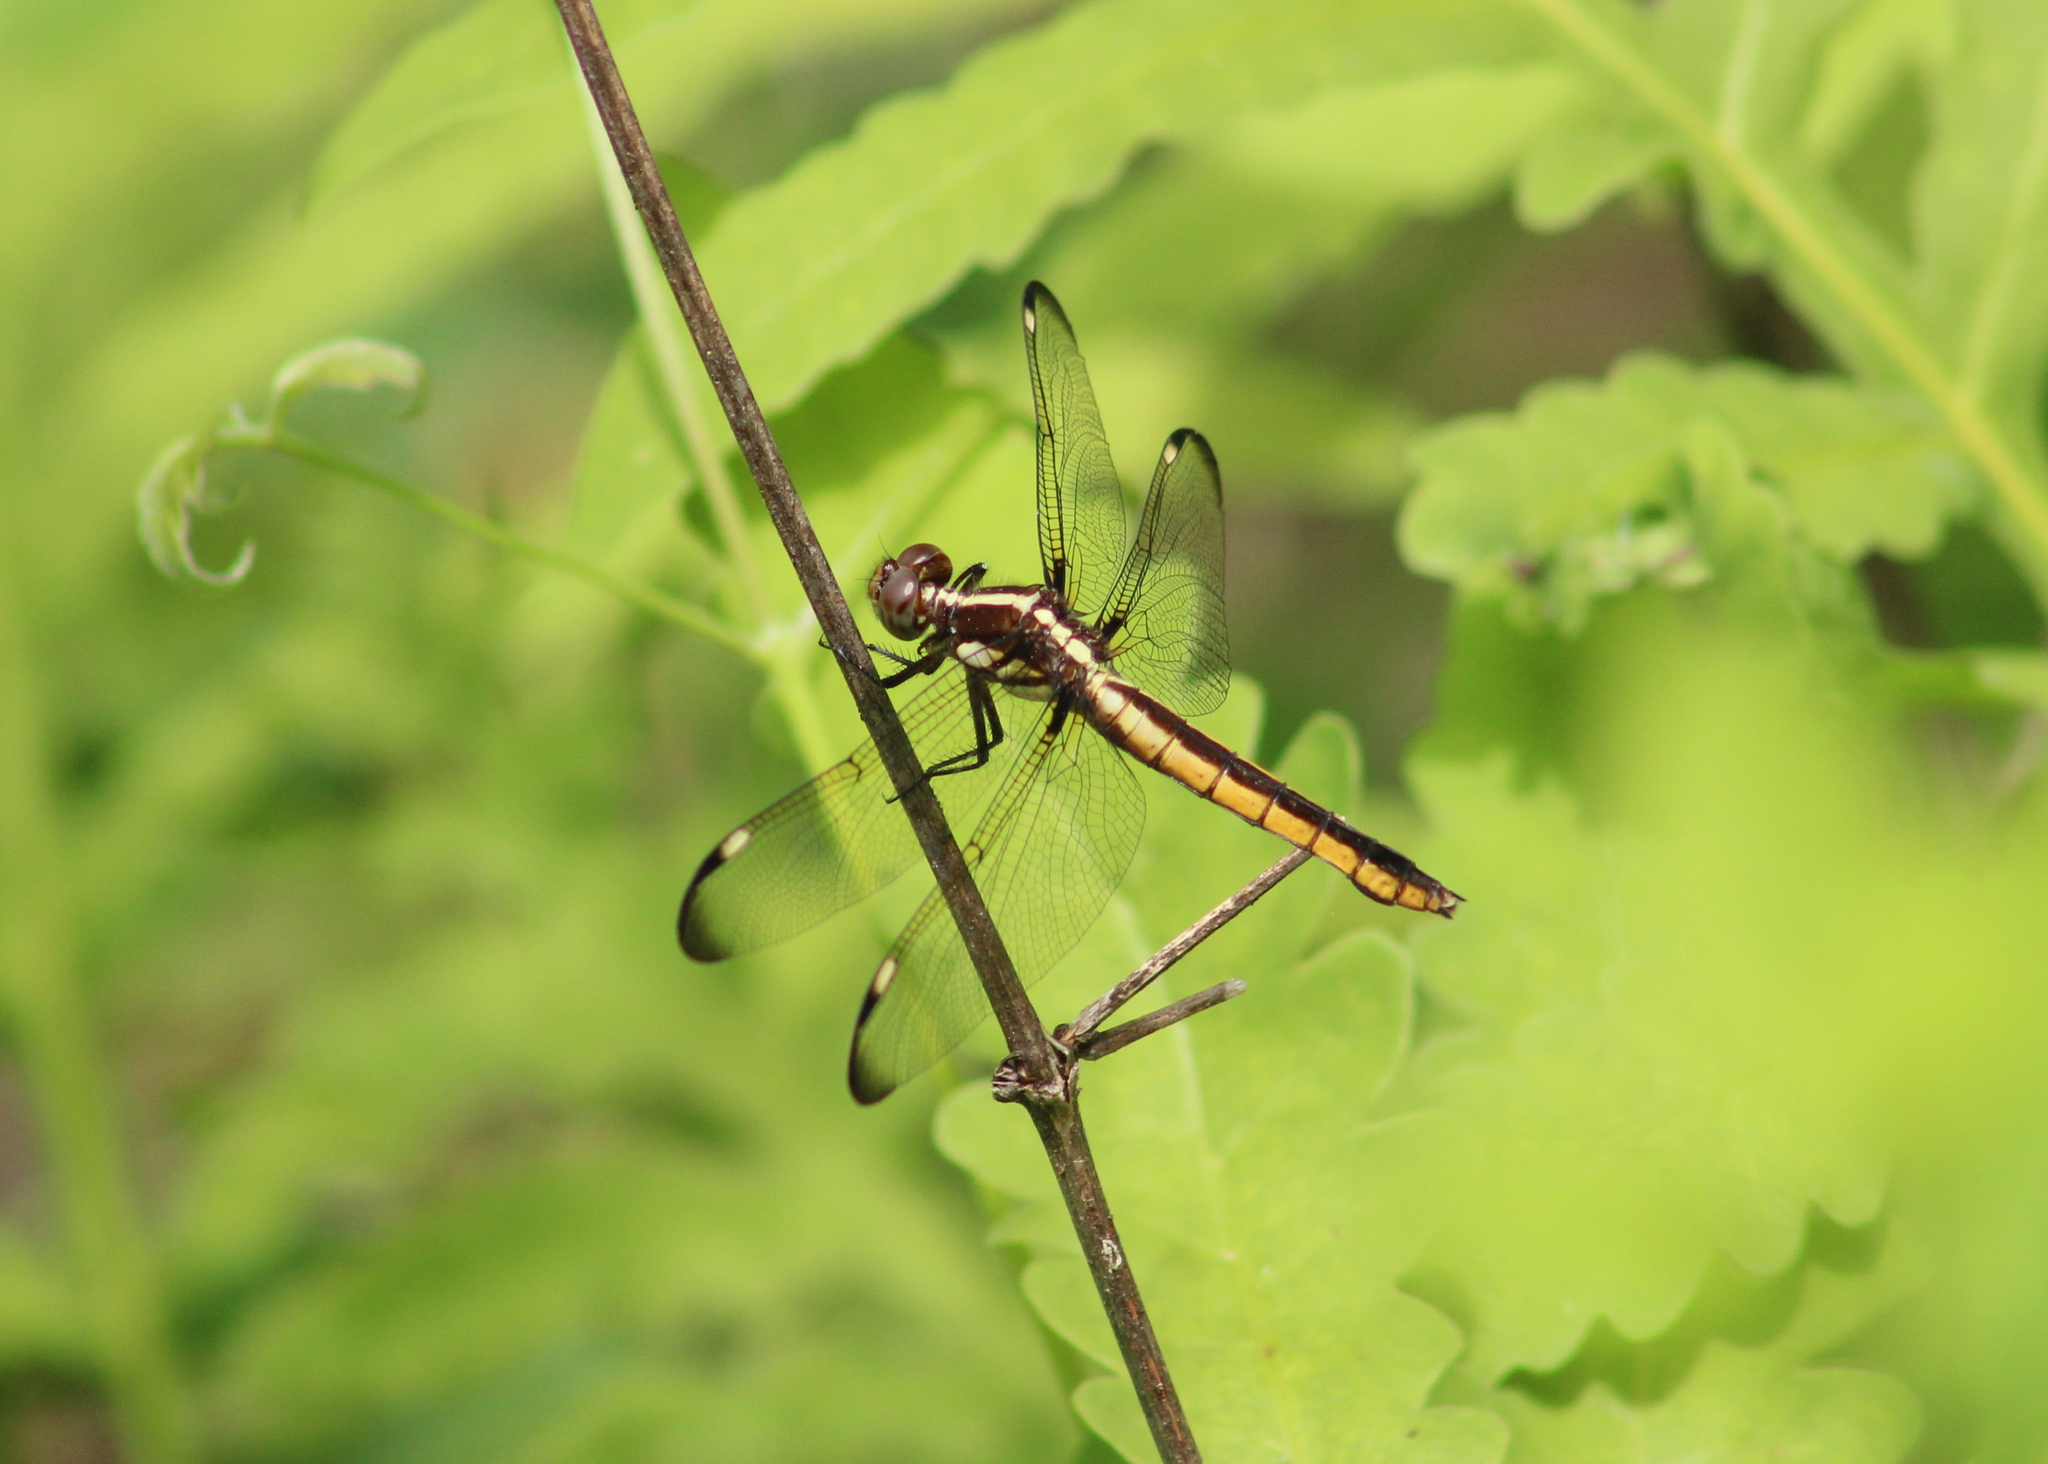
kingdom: Animalia
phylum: Arthropoda
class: Insecta
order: Odonata
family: Libellulidae
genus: Libellula
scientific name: Libellula cyanea
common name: Spangled skimmer
